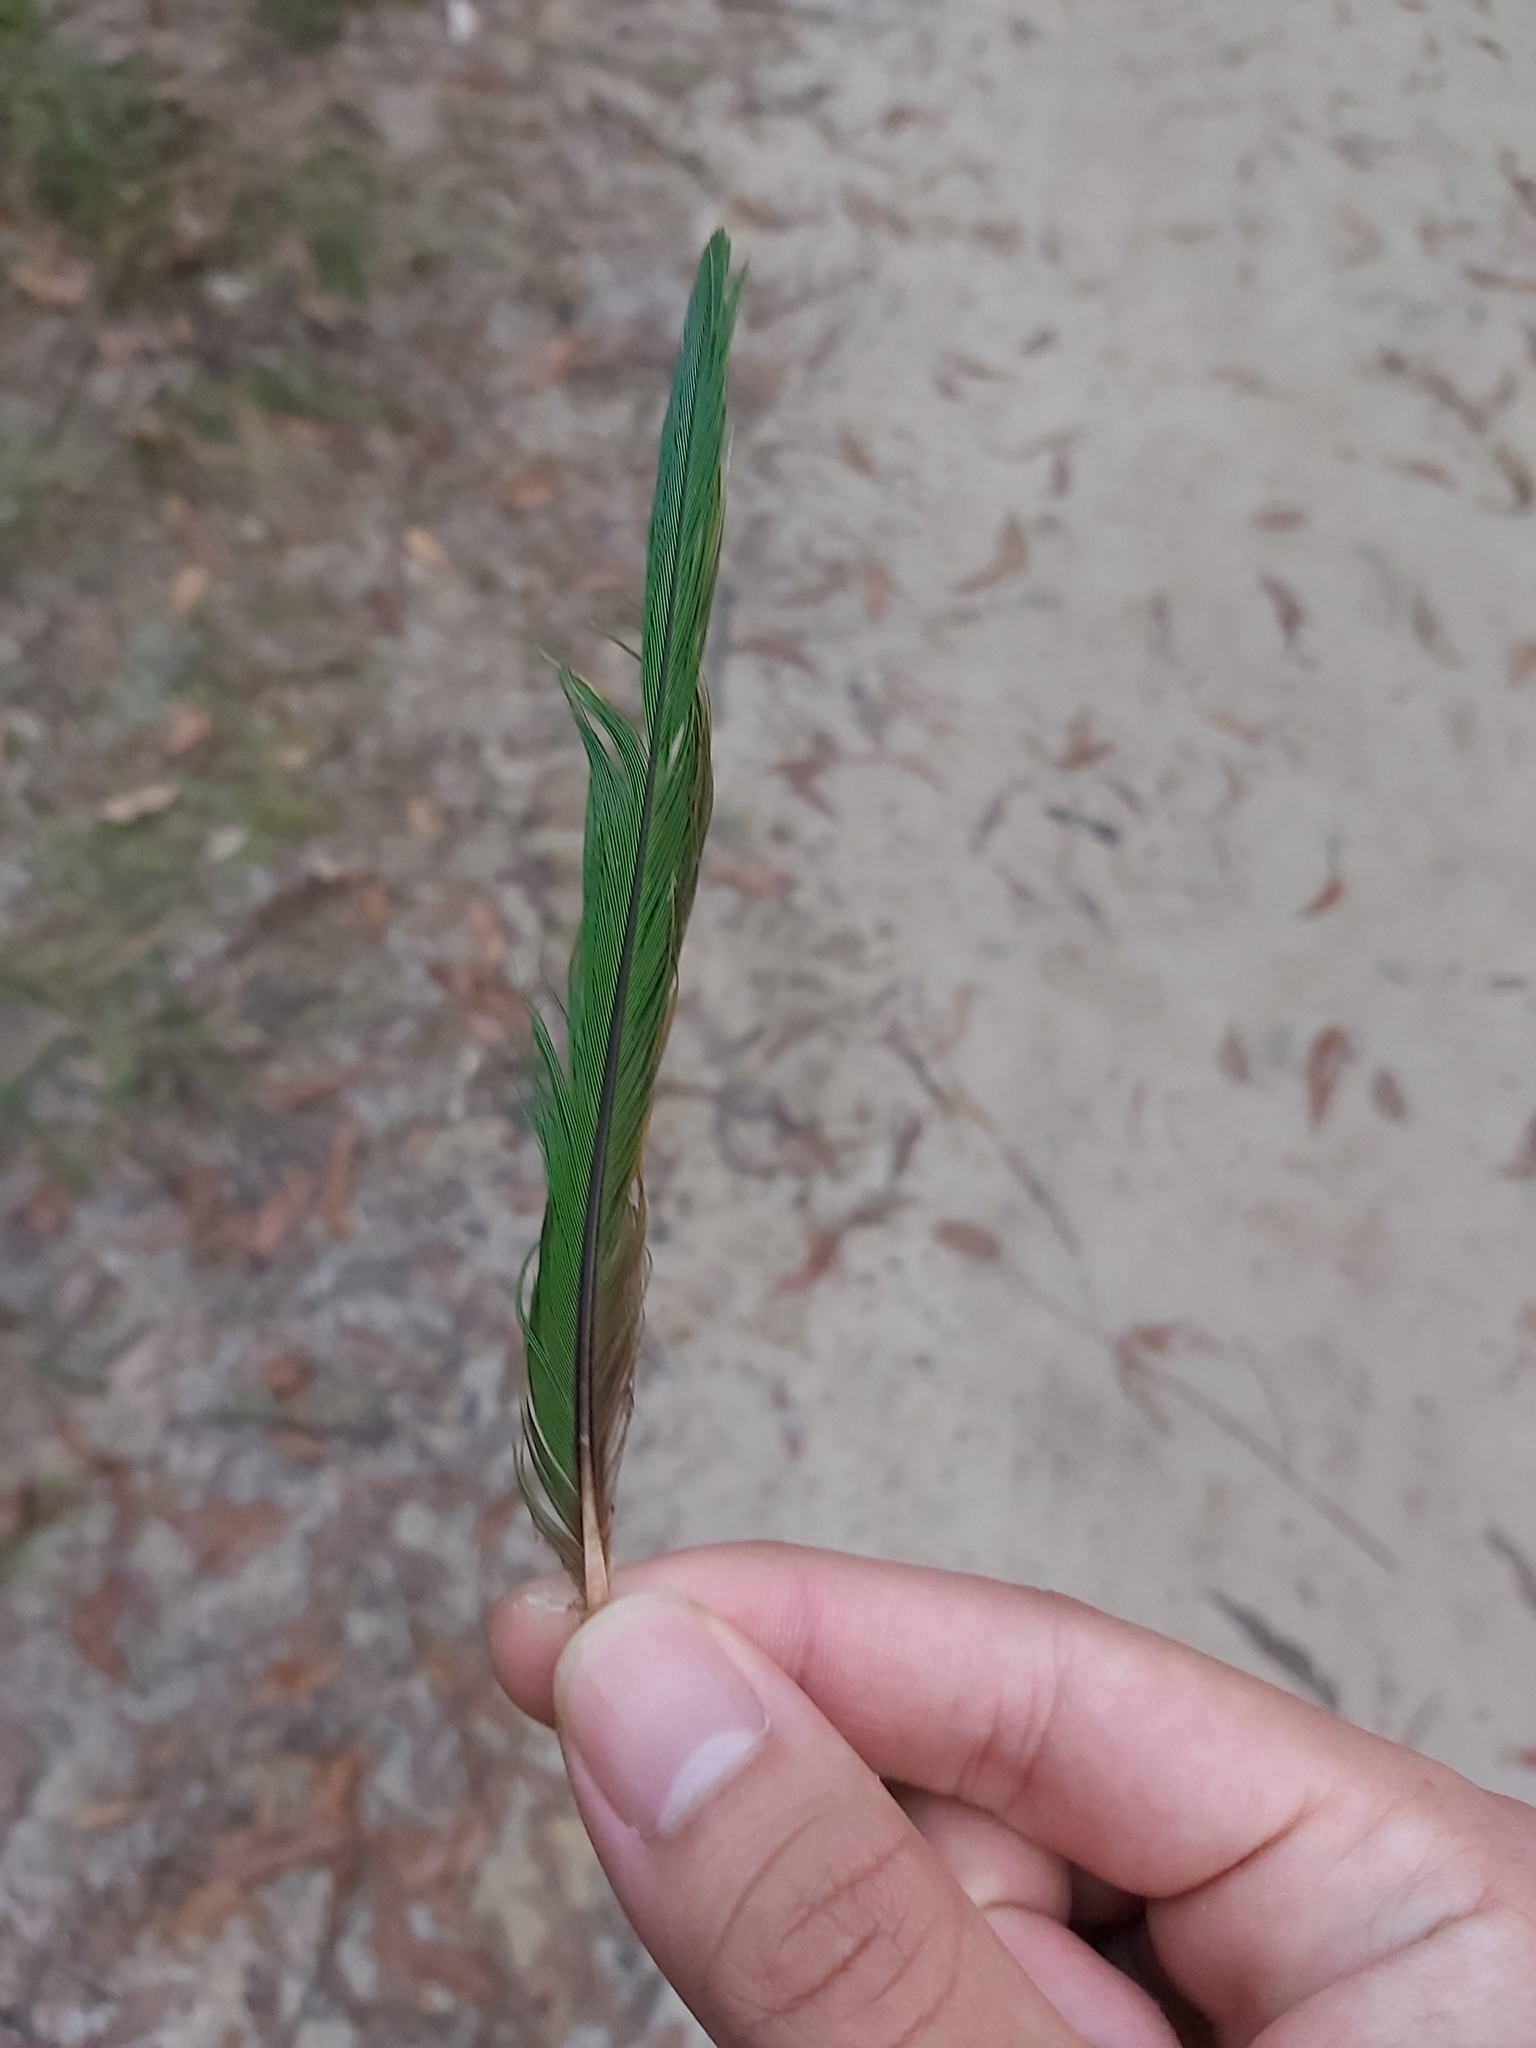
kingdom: Animalia
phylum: Chordata
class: Aves
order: Psittaciformes
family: Psittacidae
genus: Trichoglossus
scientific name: Trichoglossus haematodus
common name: Coconut lorikeet
